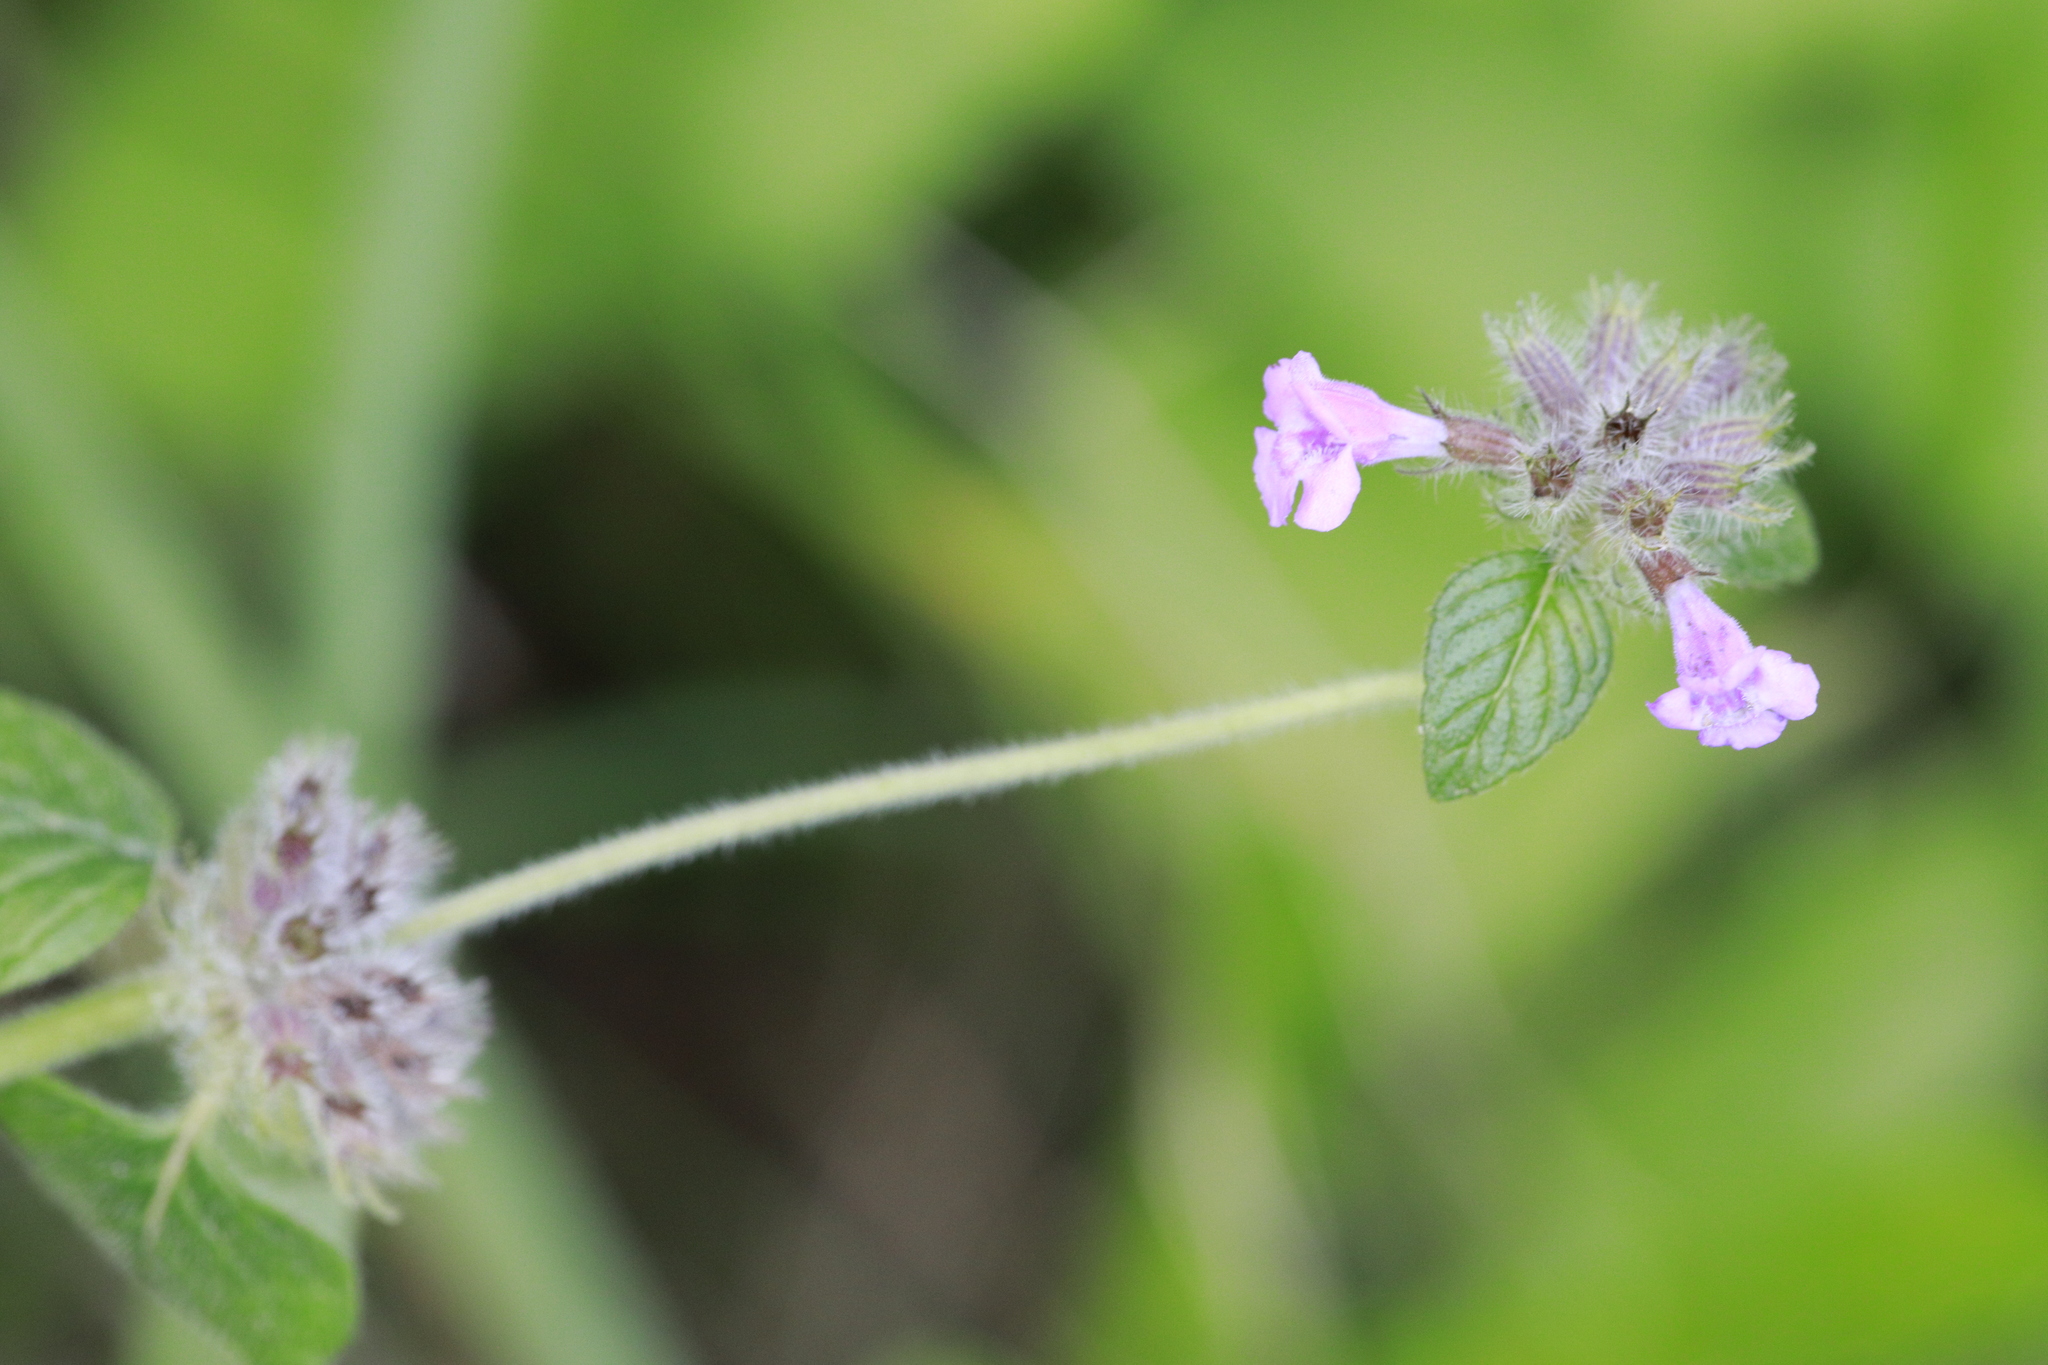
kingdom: Plantae
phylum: Tracheophyta
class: Magnoliopsida
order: Lamiales
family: Lamiaceae
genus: Clinopodium
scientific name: Clinopodium vulgare
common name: Wild basil
